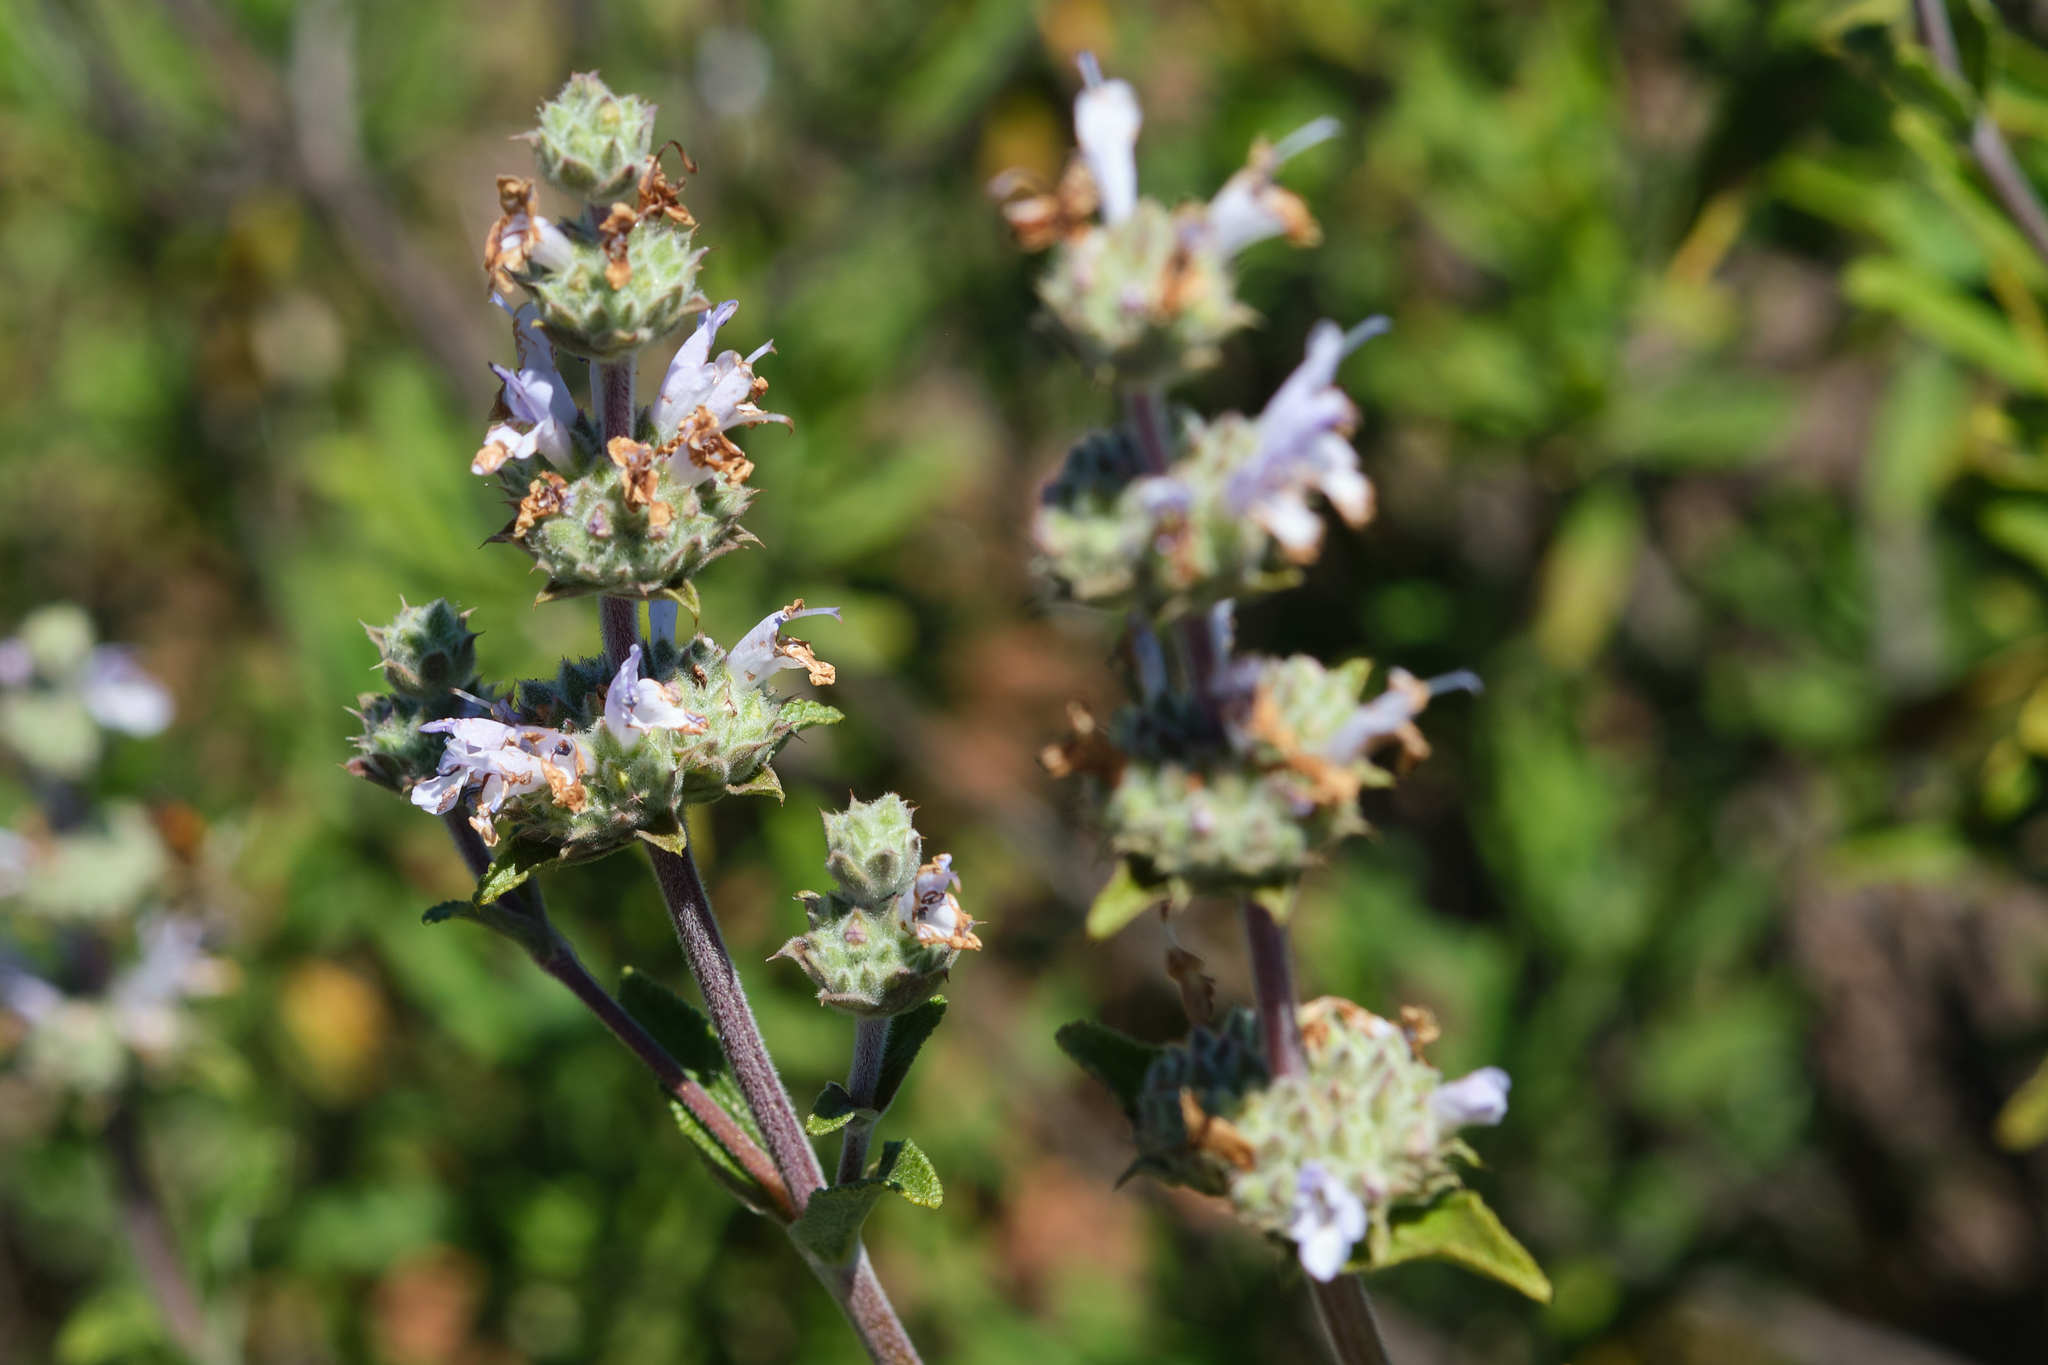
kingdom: Plantae
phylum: Tracheophyta
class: Magnoliopsida
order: Lamiales
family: Lamiaceae
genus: Salvia
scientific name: Salvia mellifera
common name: Black sage
